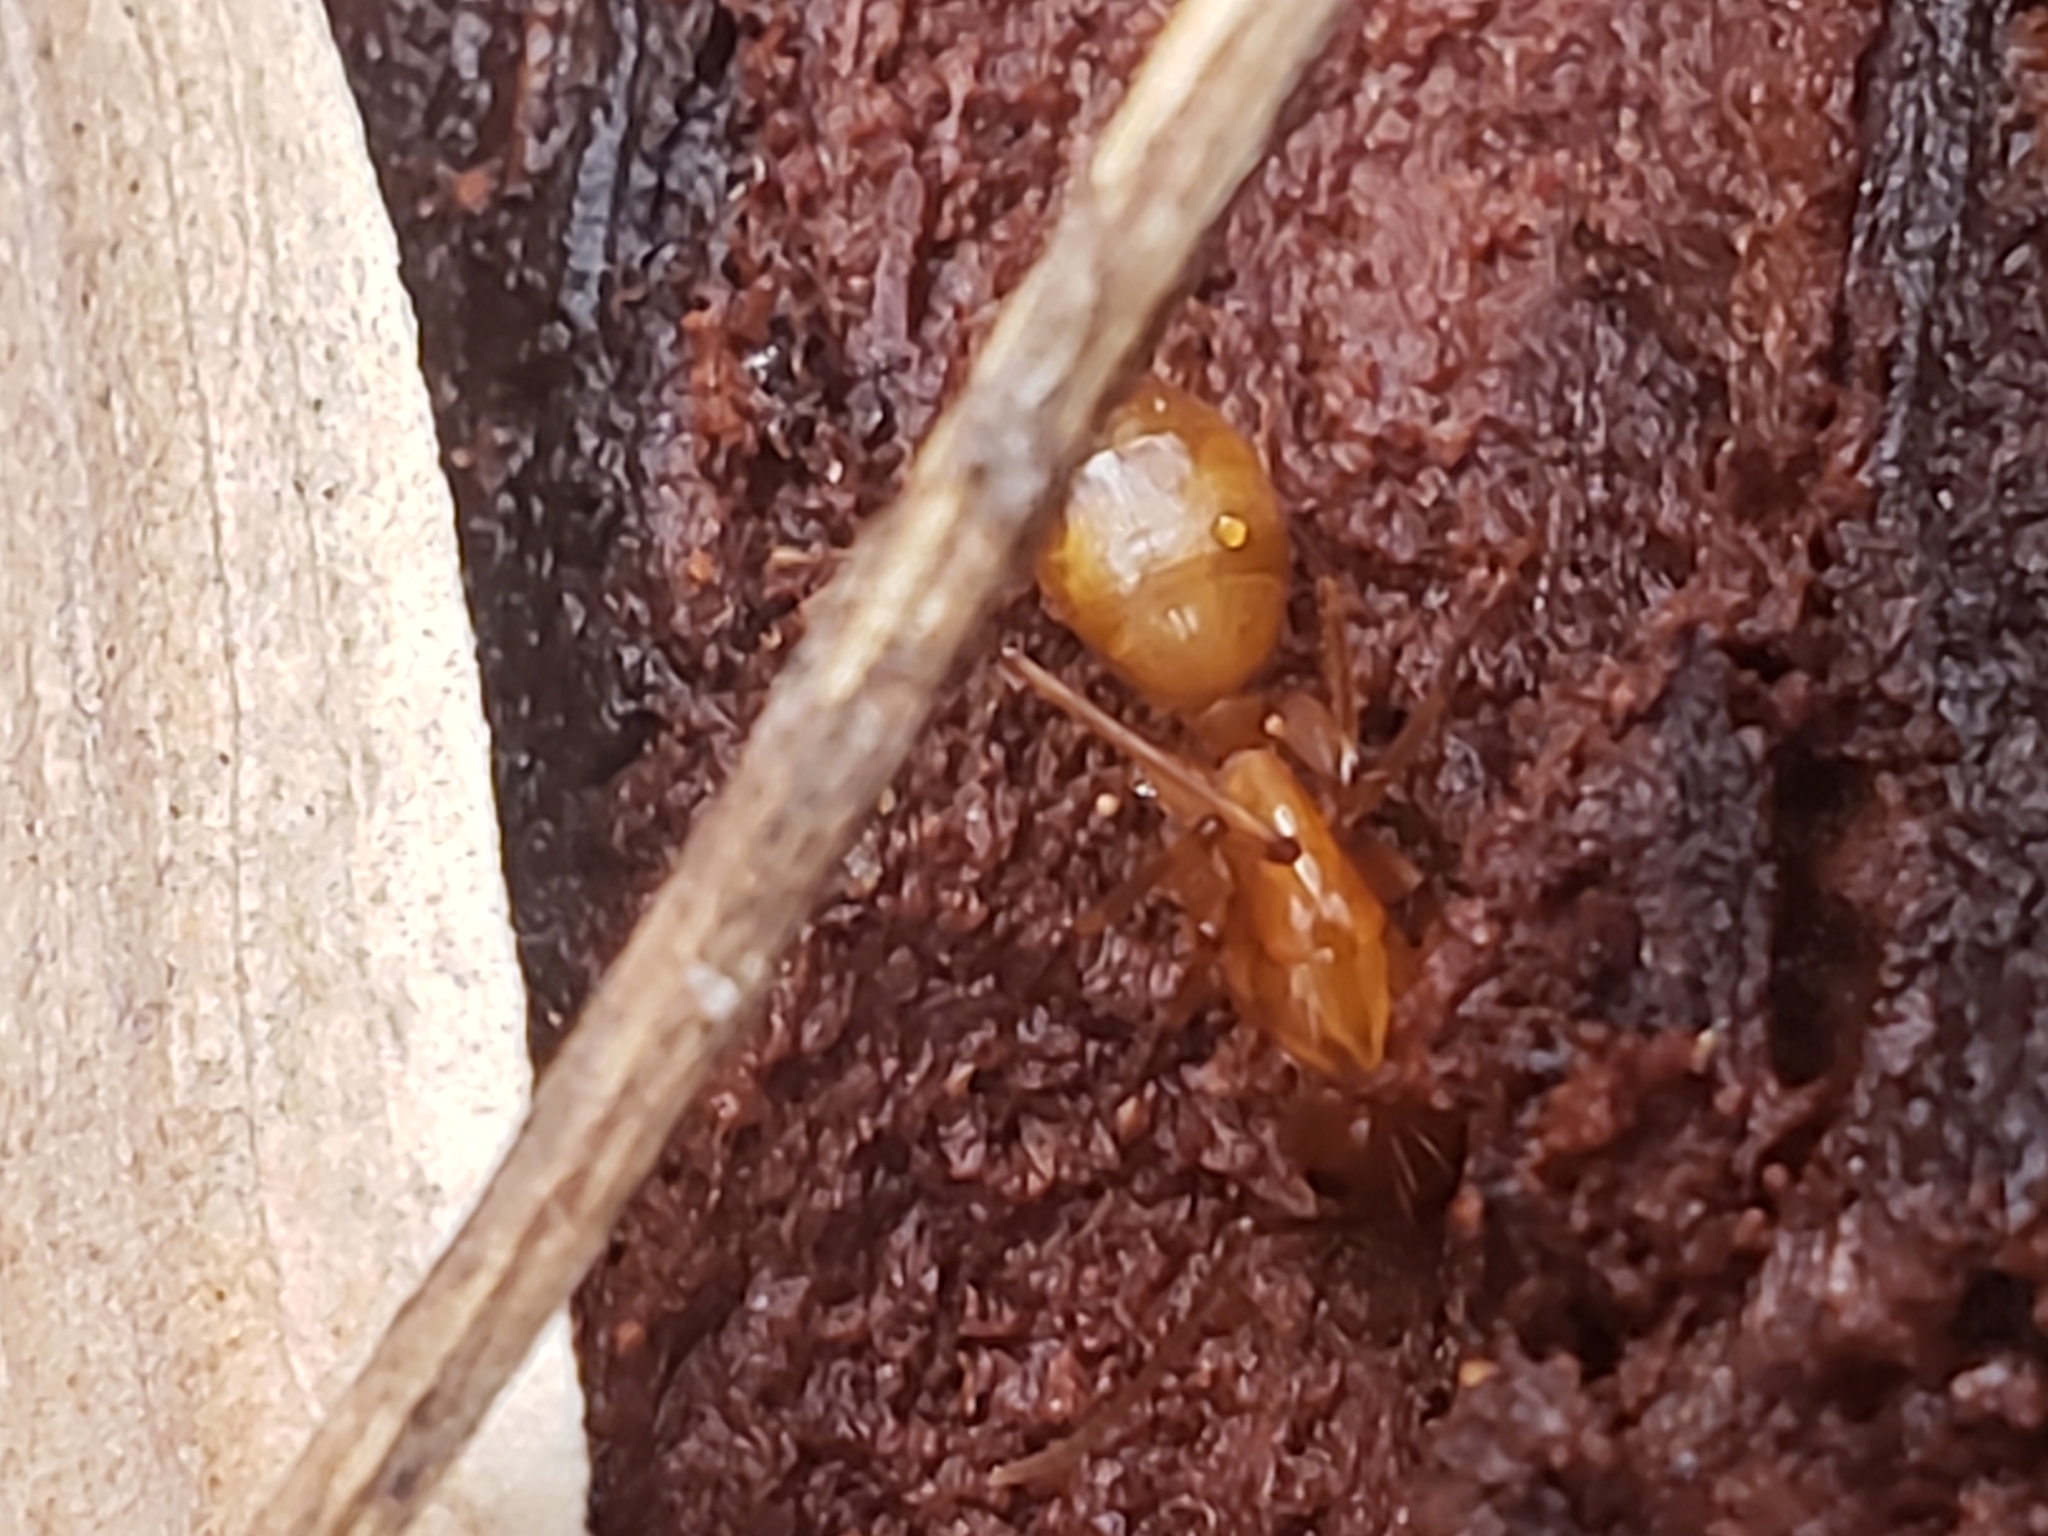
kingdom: Animalia
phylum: Arthropoda
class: Insecta
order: Hymenoptera
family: Formicidae
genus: Camponotus
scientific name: Camponotus castaneus
